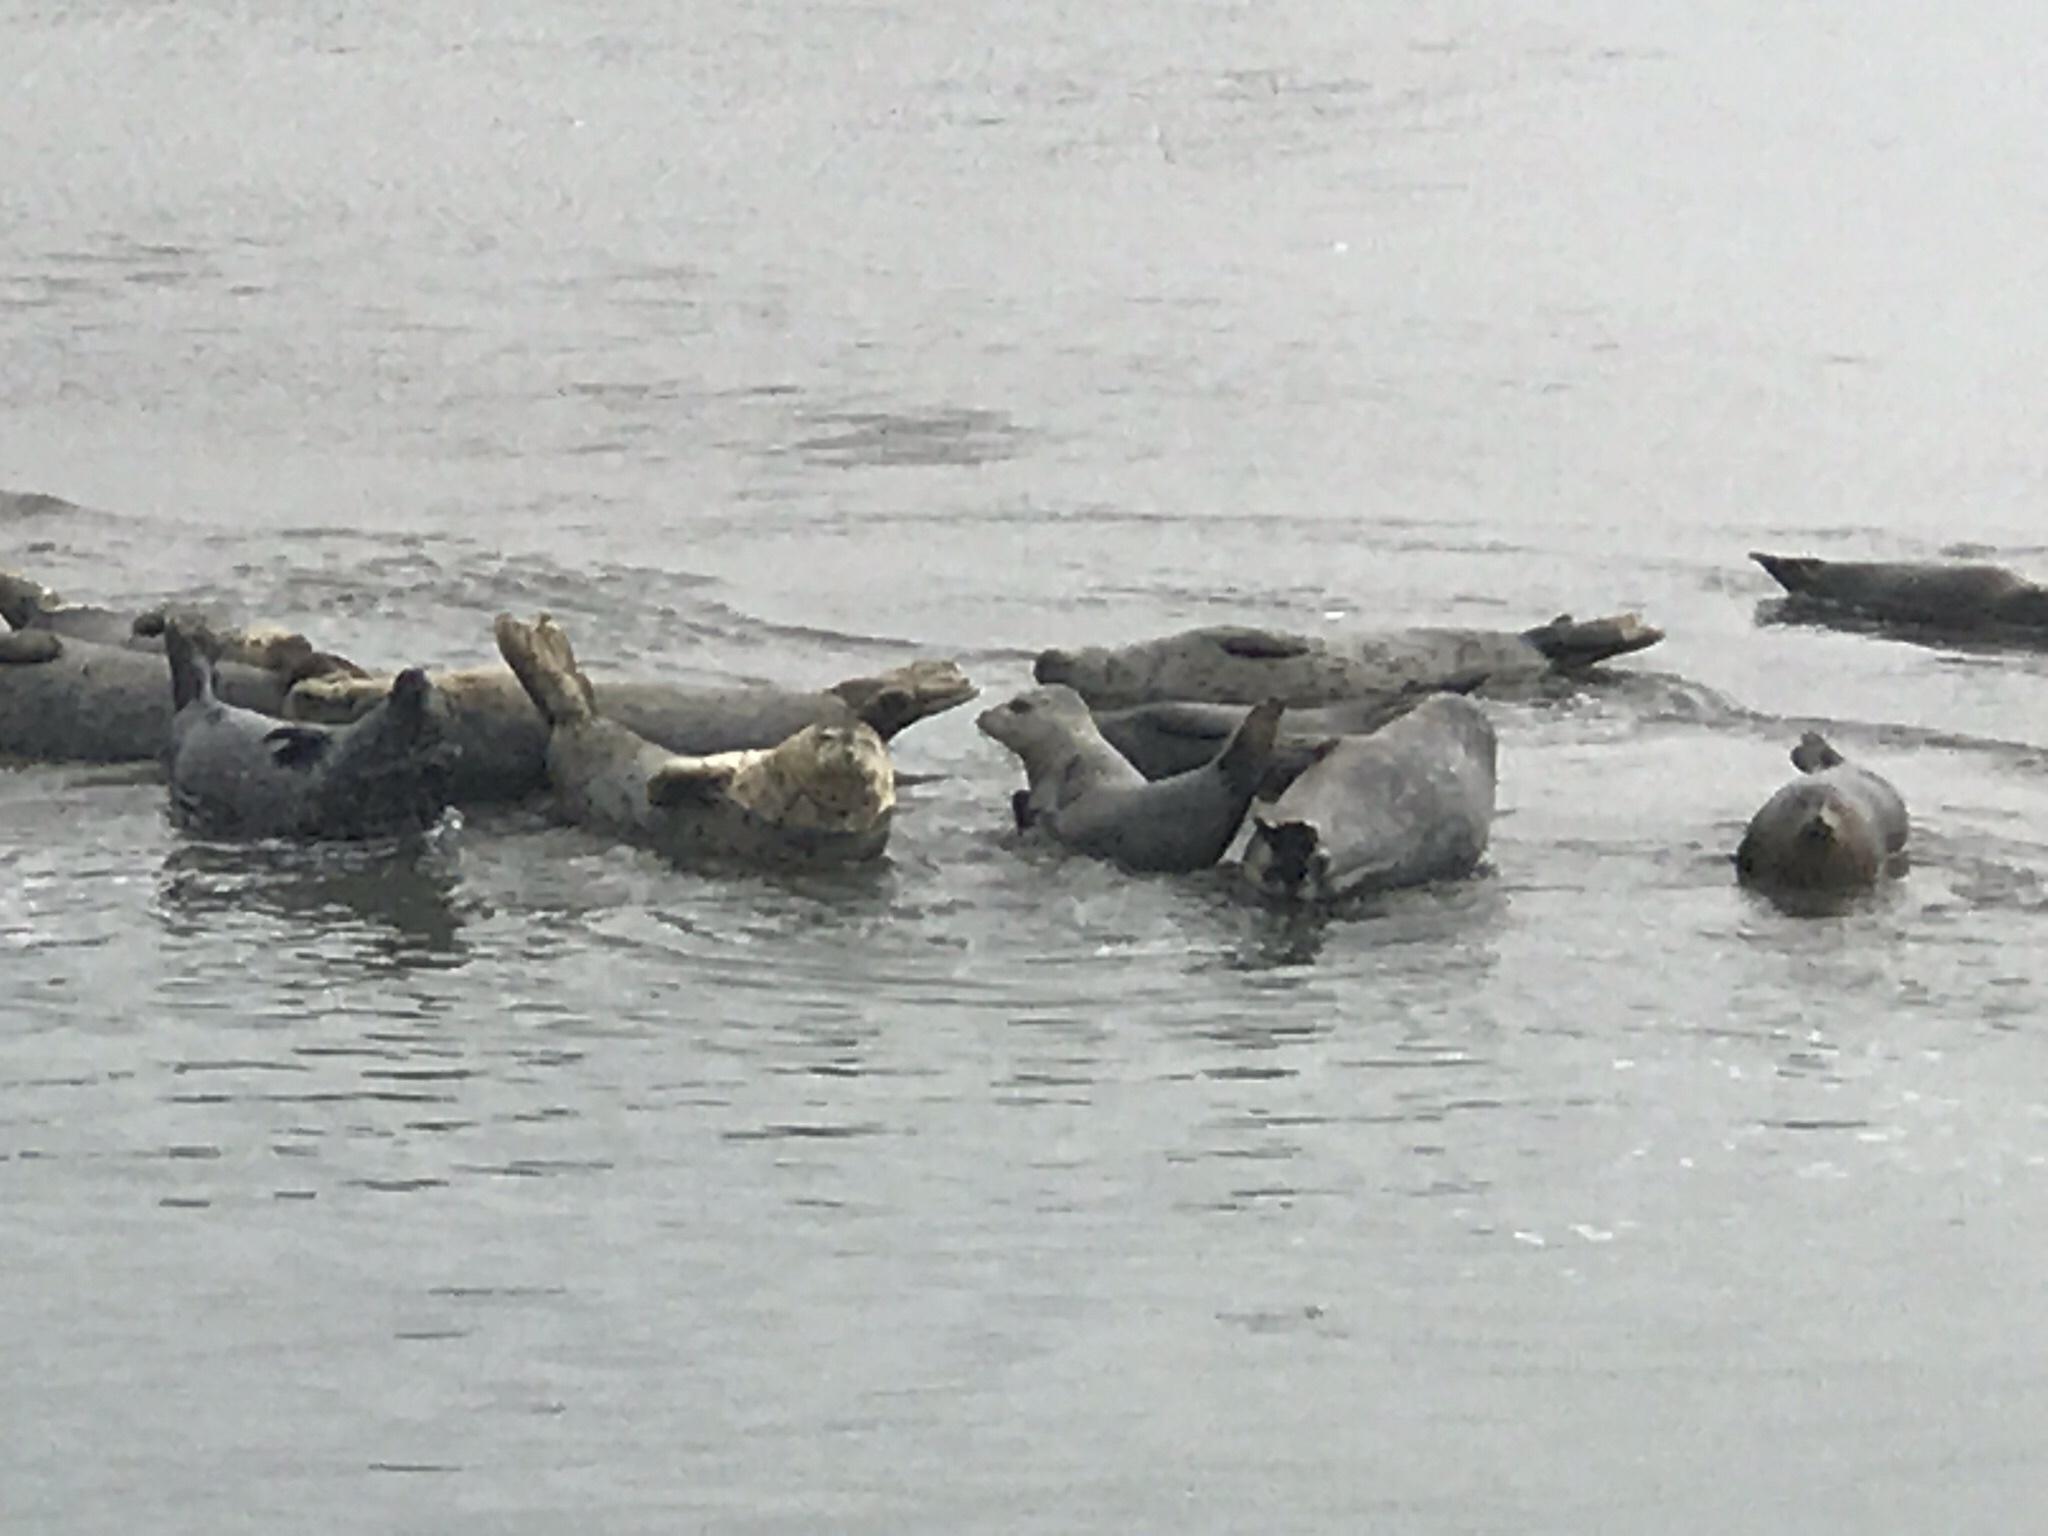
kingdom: Animalia
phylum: Chordata
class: Mammalia
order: Carnivora
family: Phocidae
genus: Phoca
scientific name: Phoca vitulina
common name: Harbor seal
